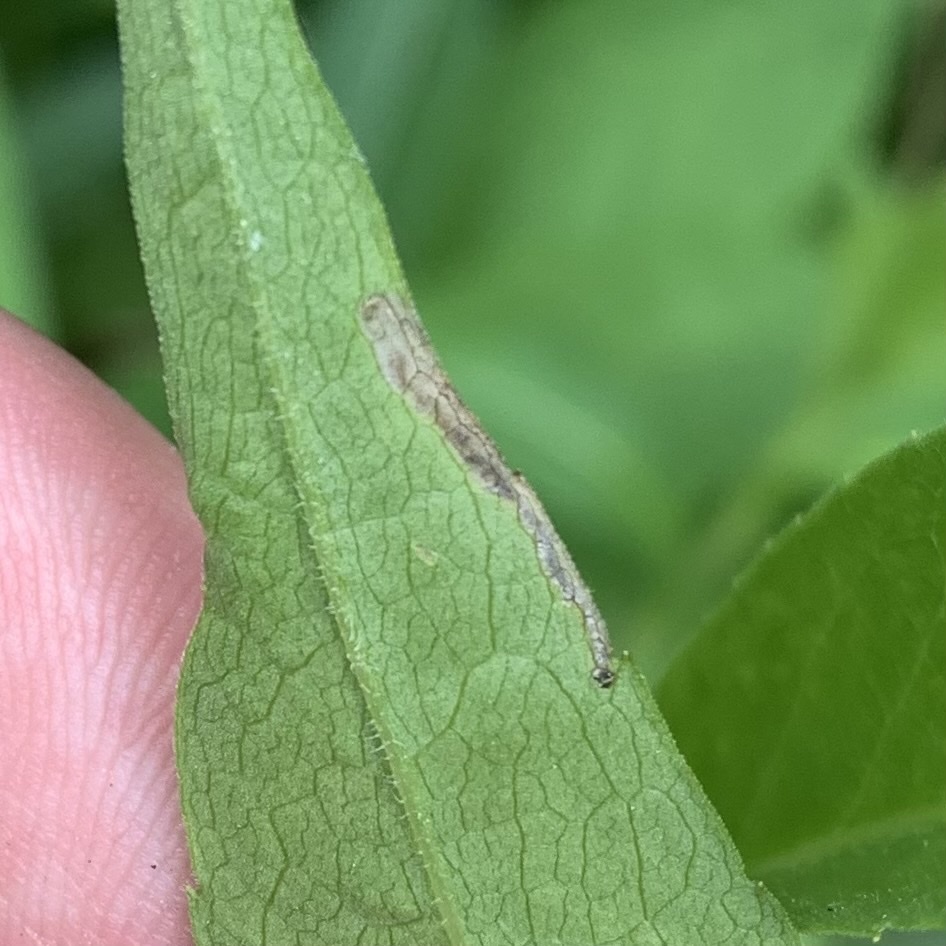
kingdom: Animalia
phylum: Arthropoda
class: Insecta
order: Lepidoptera
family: Bucculatricidae
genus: Bucculatrix
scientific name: Bucculatrix angustata
